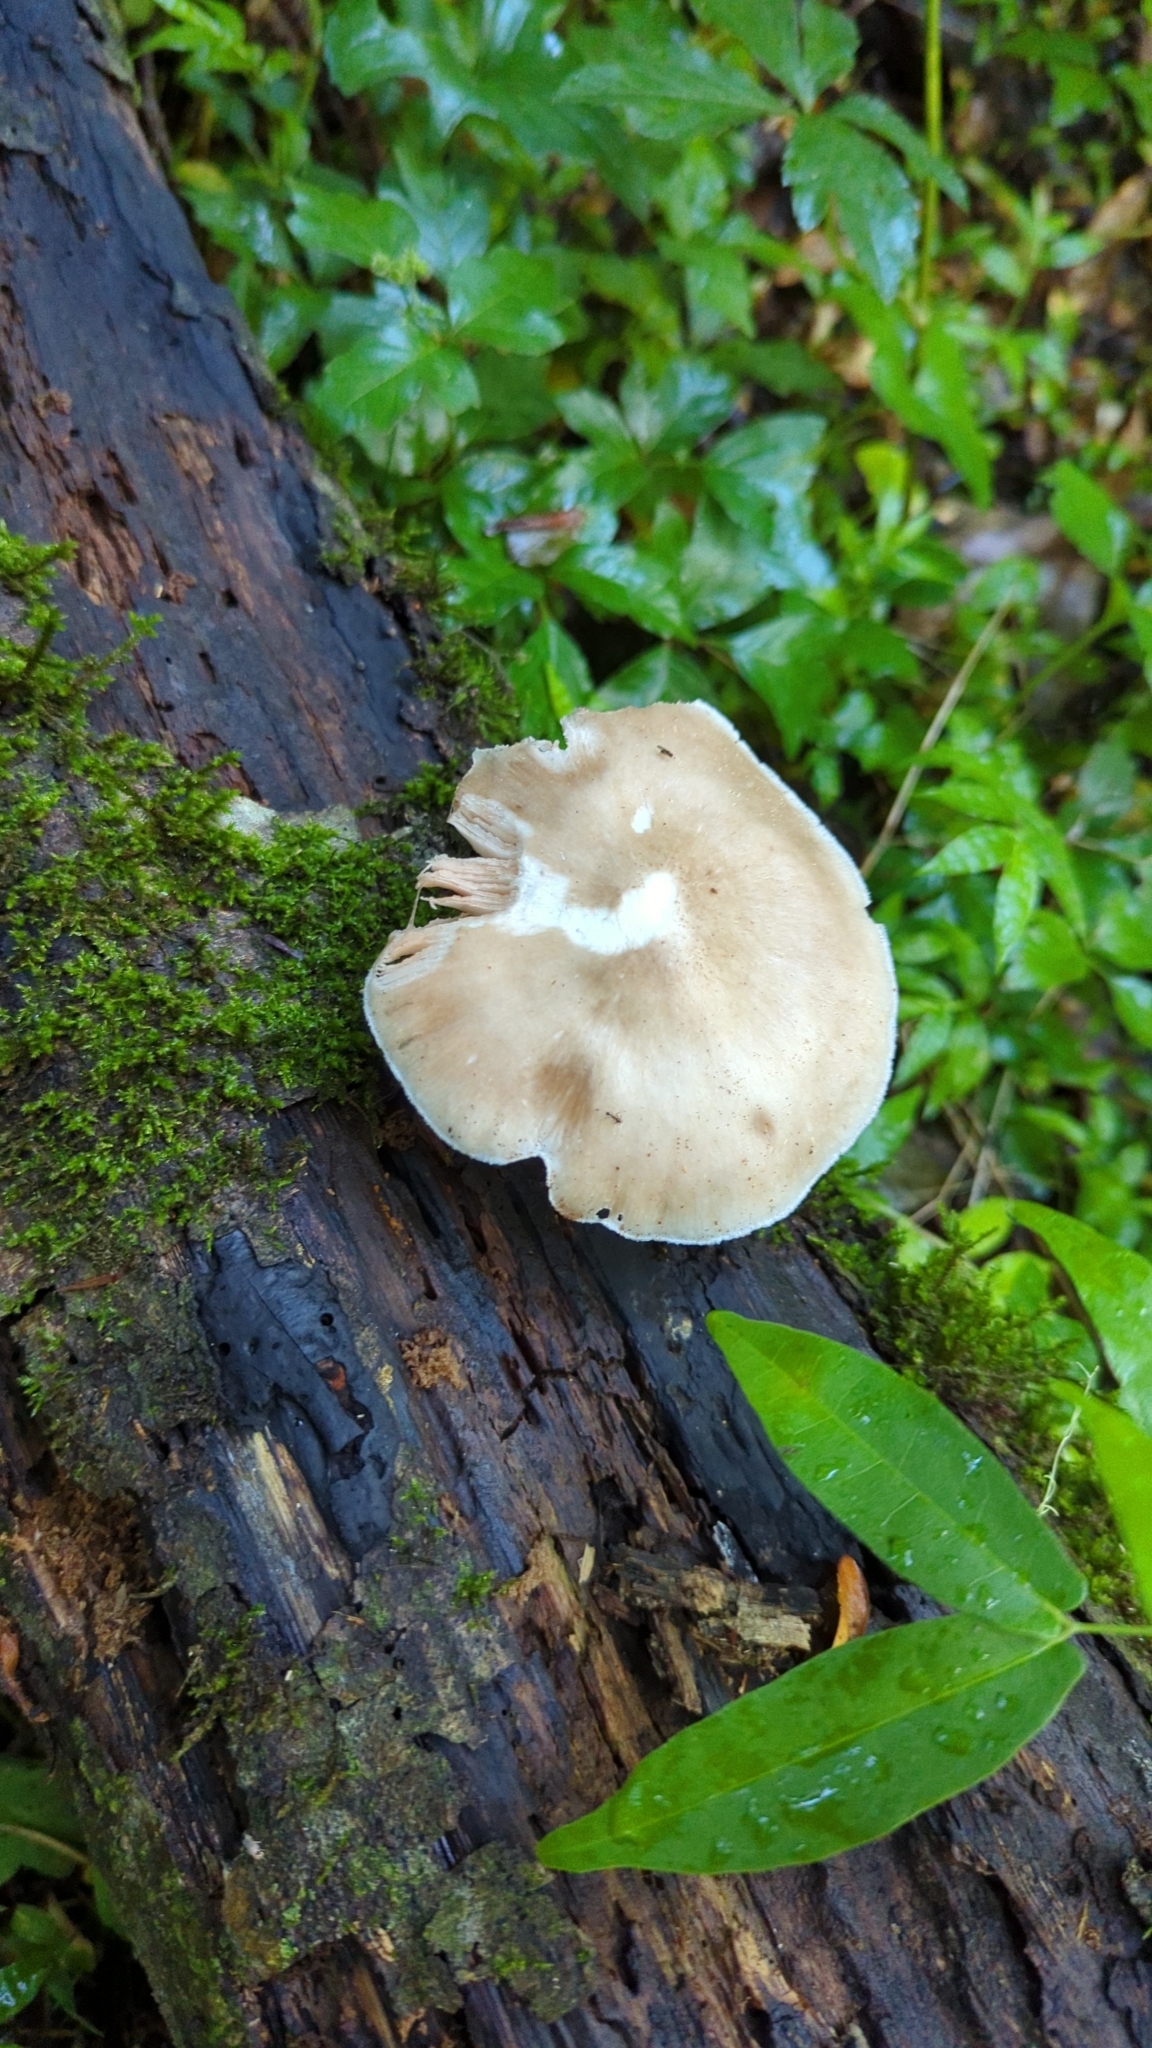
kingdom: Fungi
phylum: Basidiomycota
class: Agaricomycetes
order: Agaricales
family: Pluteaceae
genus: Pluteus
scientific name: Pluteus cervinus
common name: Deer shield
